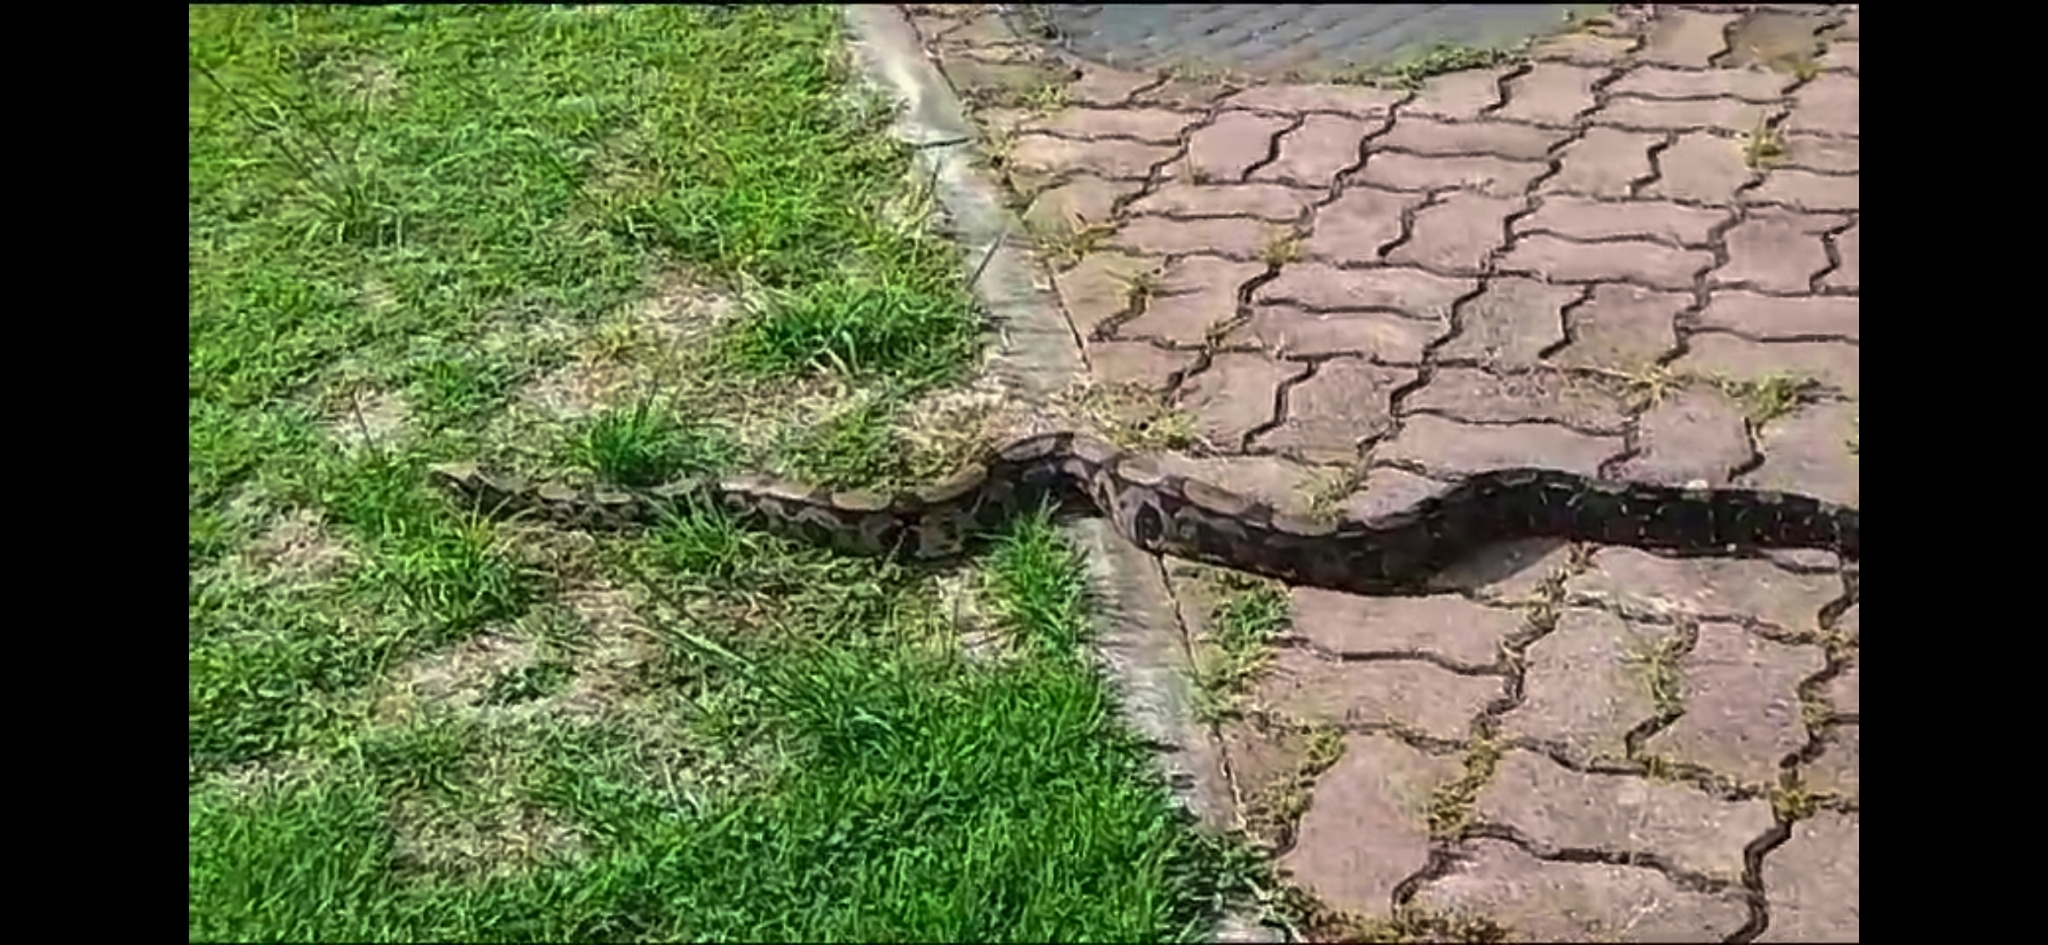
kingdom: Animalia
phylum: Chordata
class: Squamata
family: Boidae
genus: Boa
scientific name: Boa constrictor
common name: Boa constrictor
